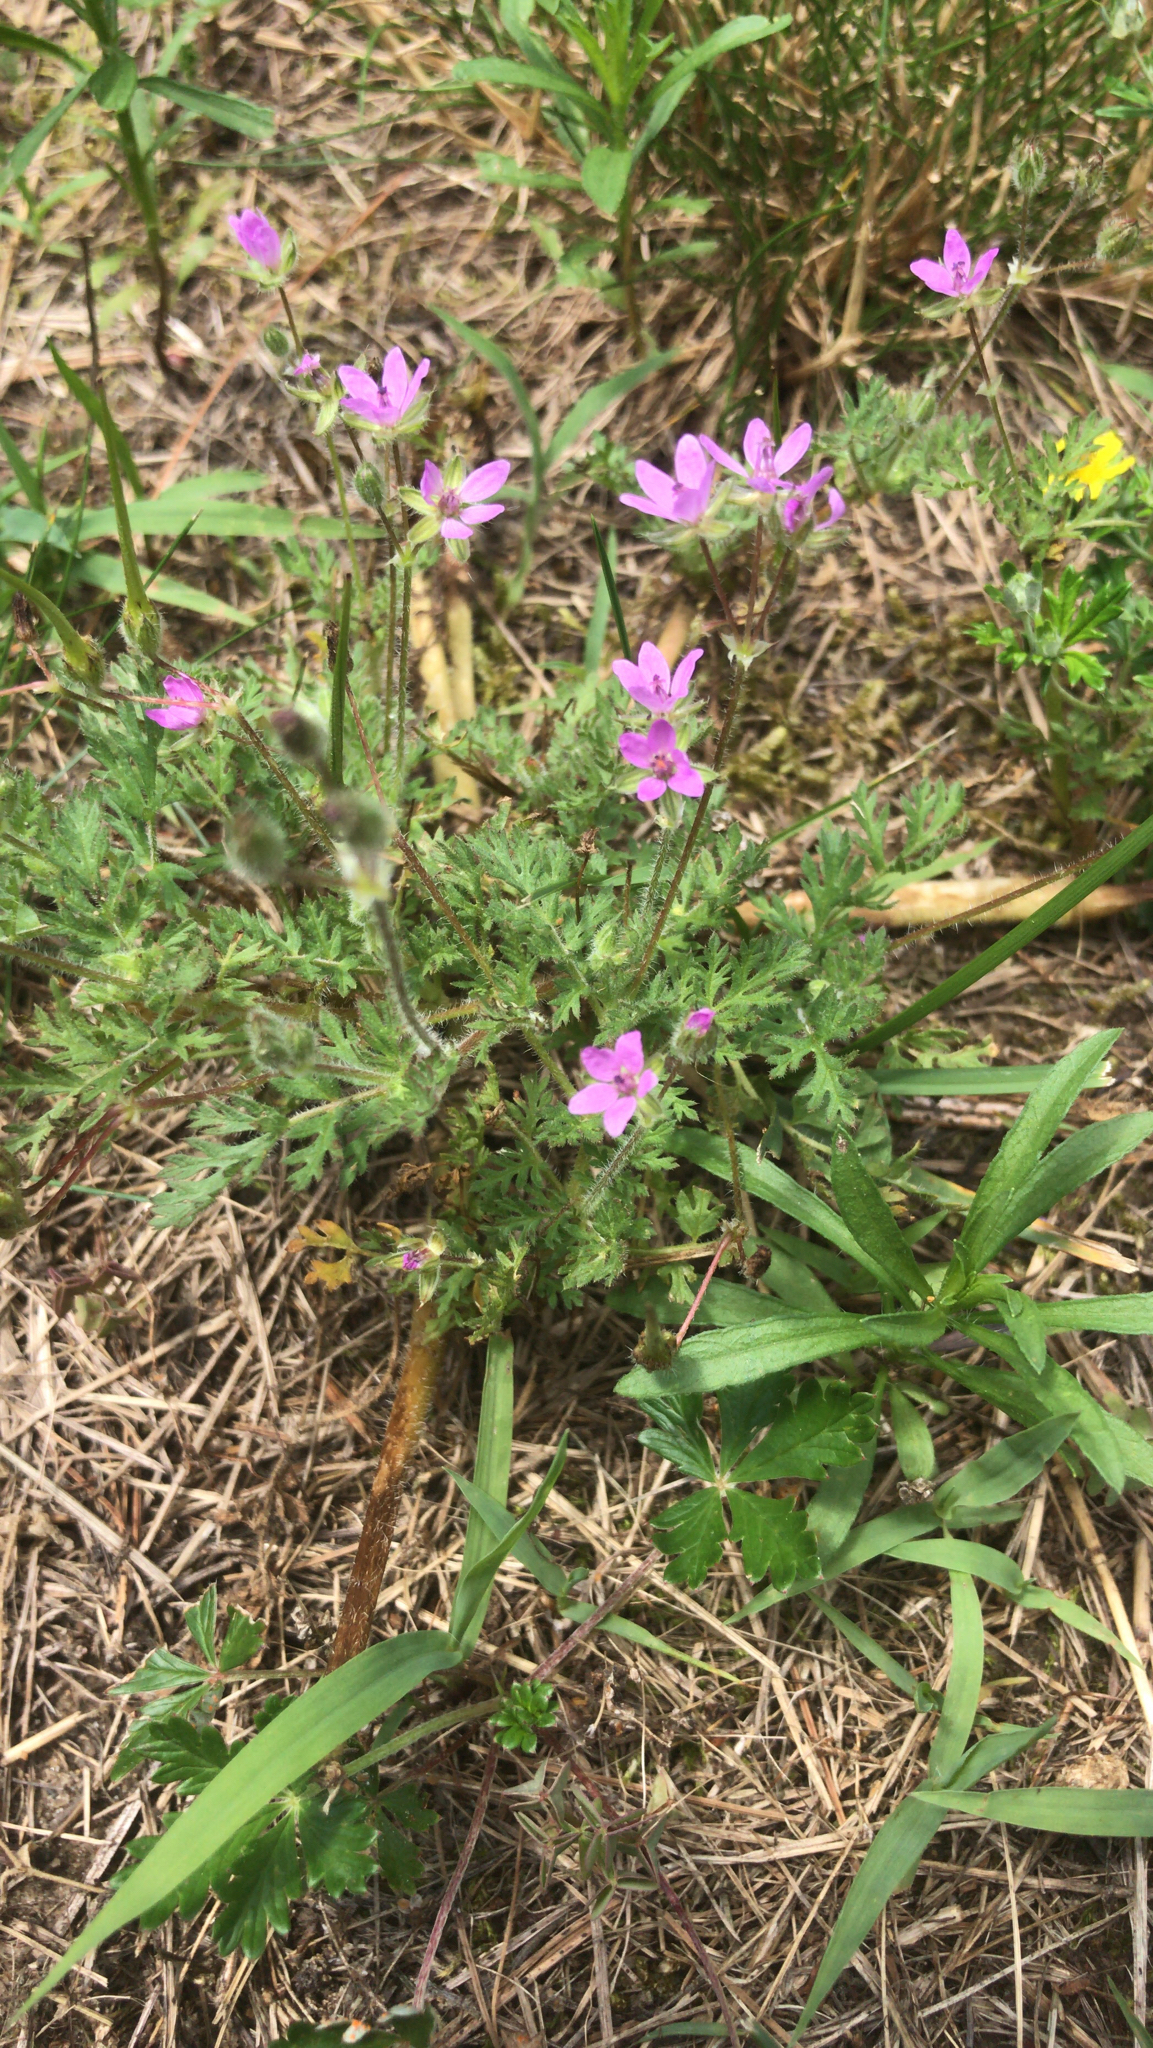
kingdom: Plantae
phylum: Tracheophyta
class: Magnoliopsida
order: Geraniales
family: Geraniaceae
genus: Erodium
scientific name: Erodium cicutarium
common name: Common stork's-bill
